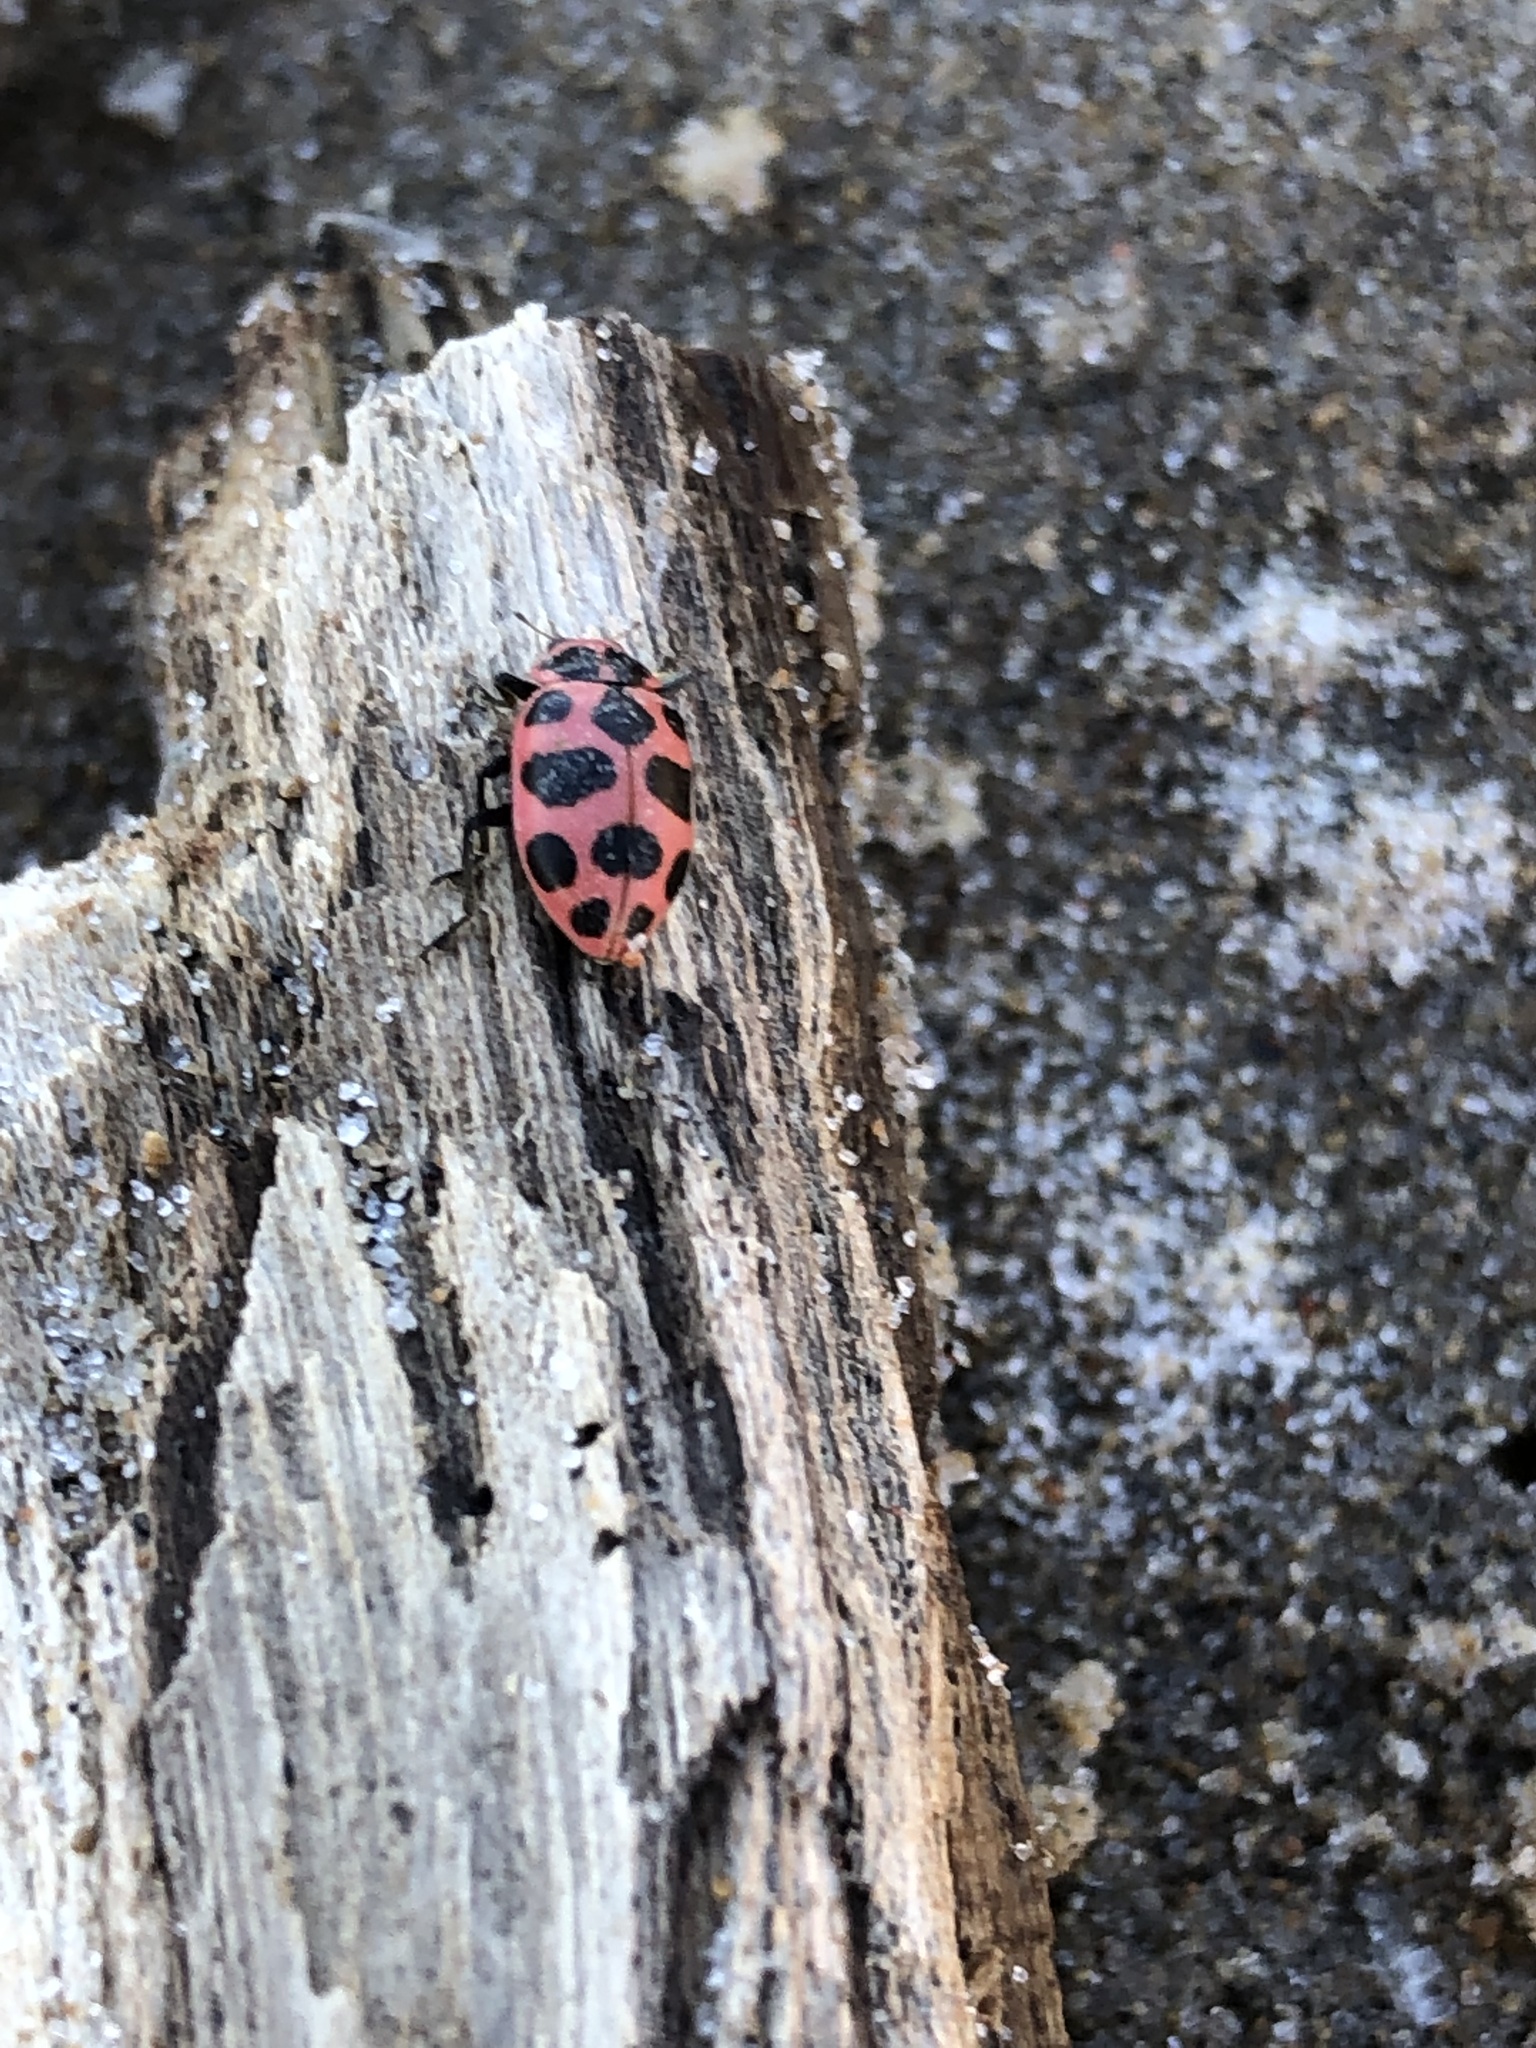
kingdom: Animalia
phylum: Arthropoda
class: Insecta
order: Coleoptera
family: Coccinellidae
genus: Coleomegilla
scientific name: Coleomegilla maculata
